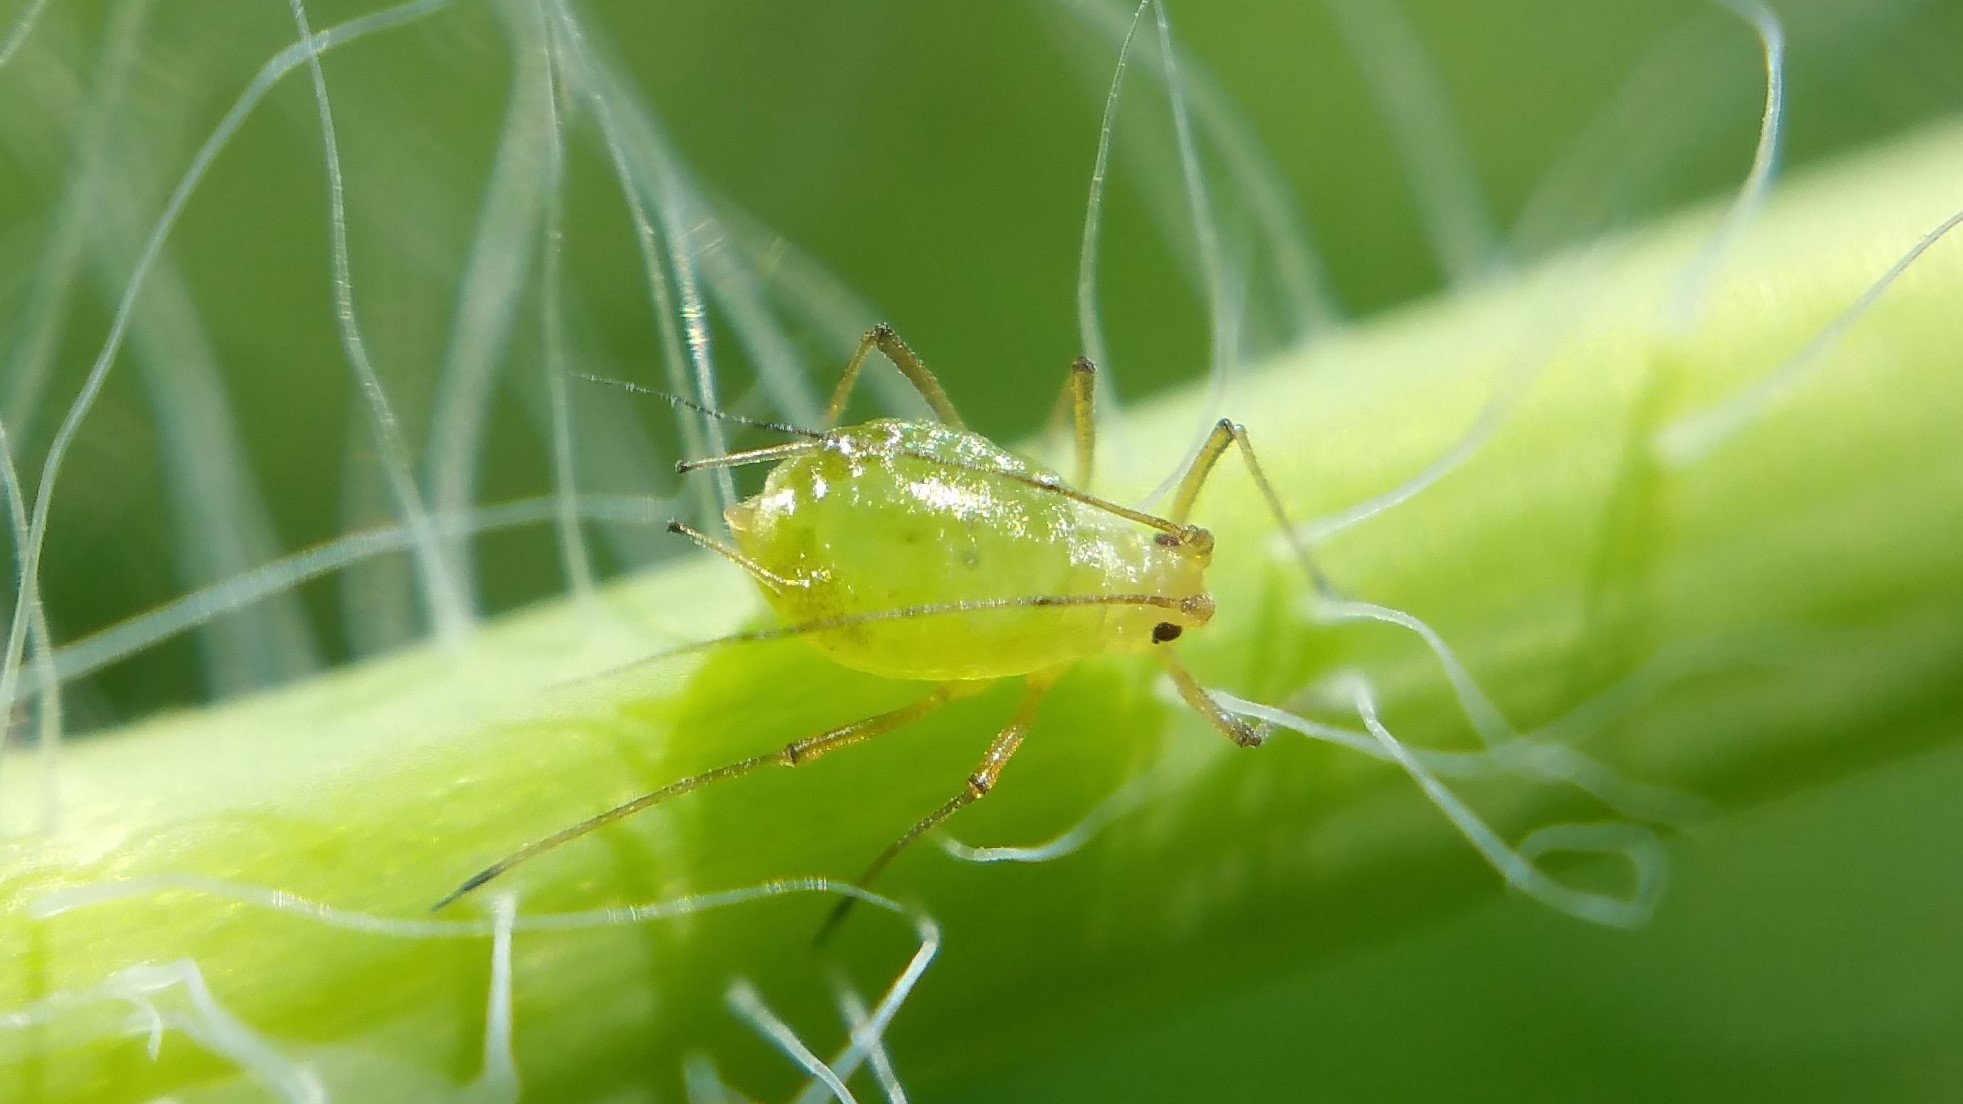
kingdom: Animalia
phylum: Arthropoda
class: Insecta
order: Hemiptera
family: Aphididae
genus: Aulacorthum
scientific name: Aulacorthum solani
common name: Foxglove aphid
